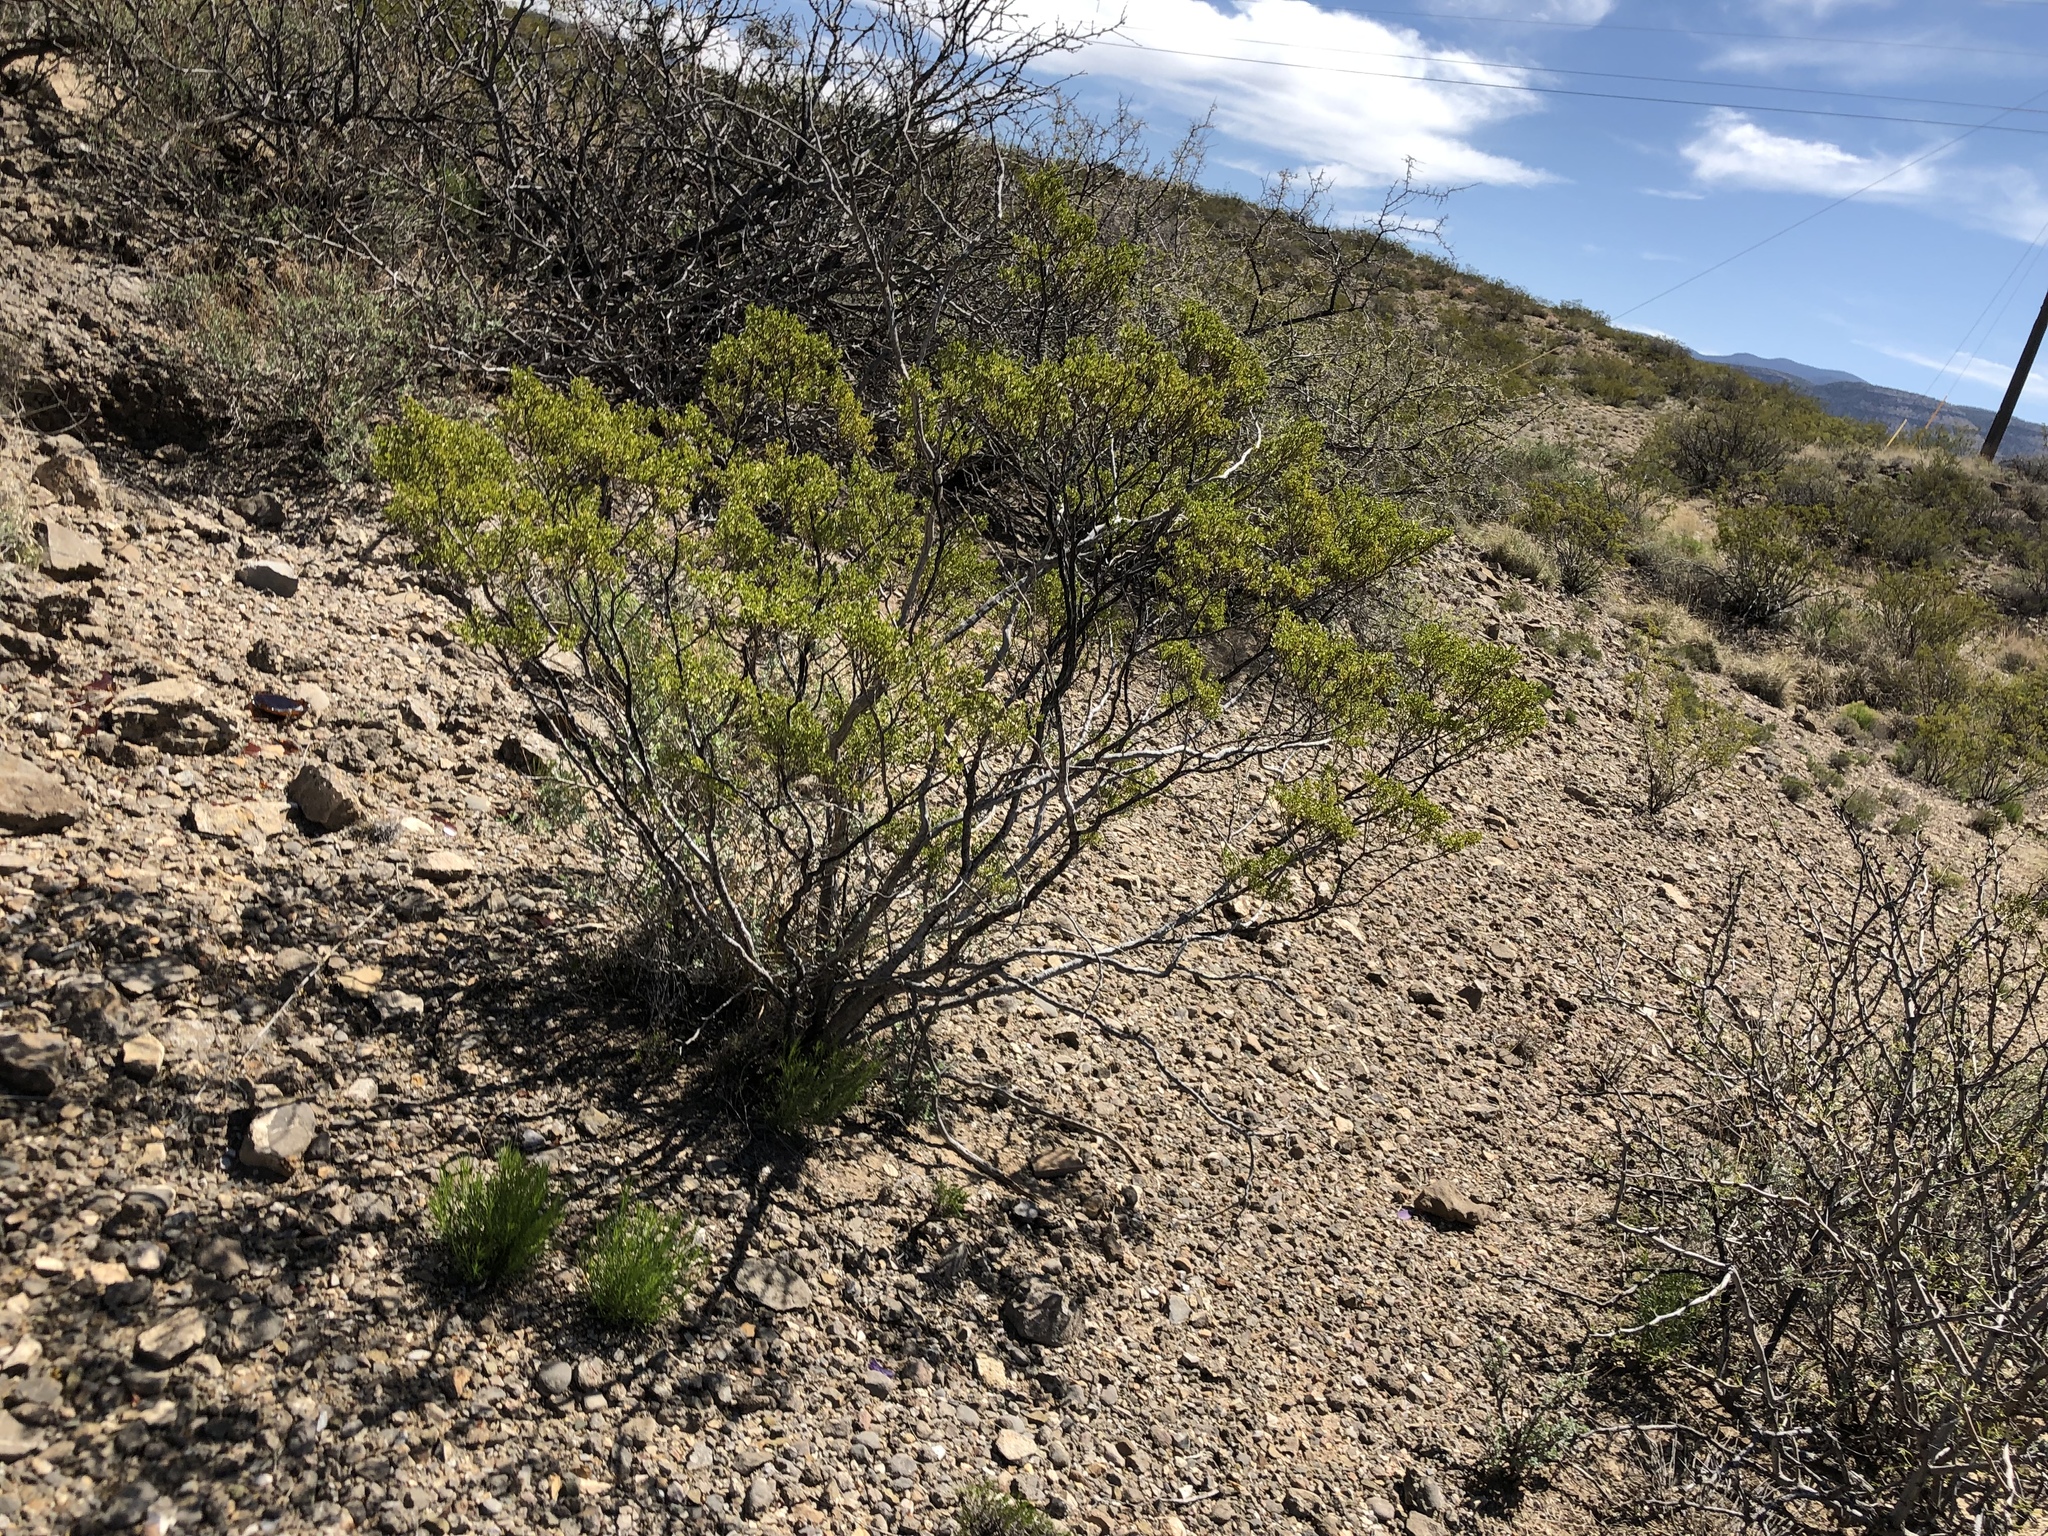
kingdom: Plantae
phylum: Tracheophyta
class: Magnoliopsida
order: Zygophyllales
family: Zygophyllaceae
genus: Larrea
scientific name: Larrea tridentata
